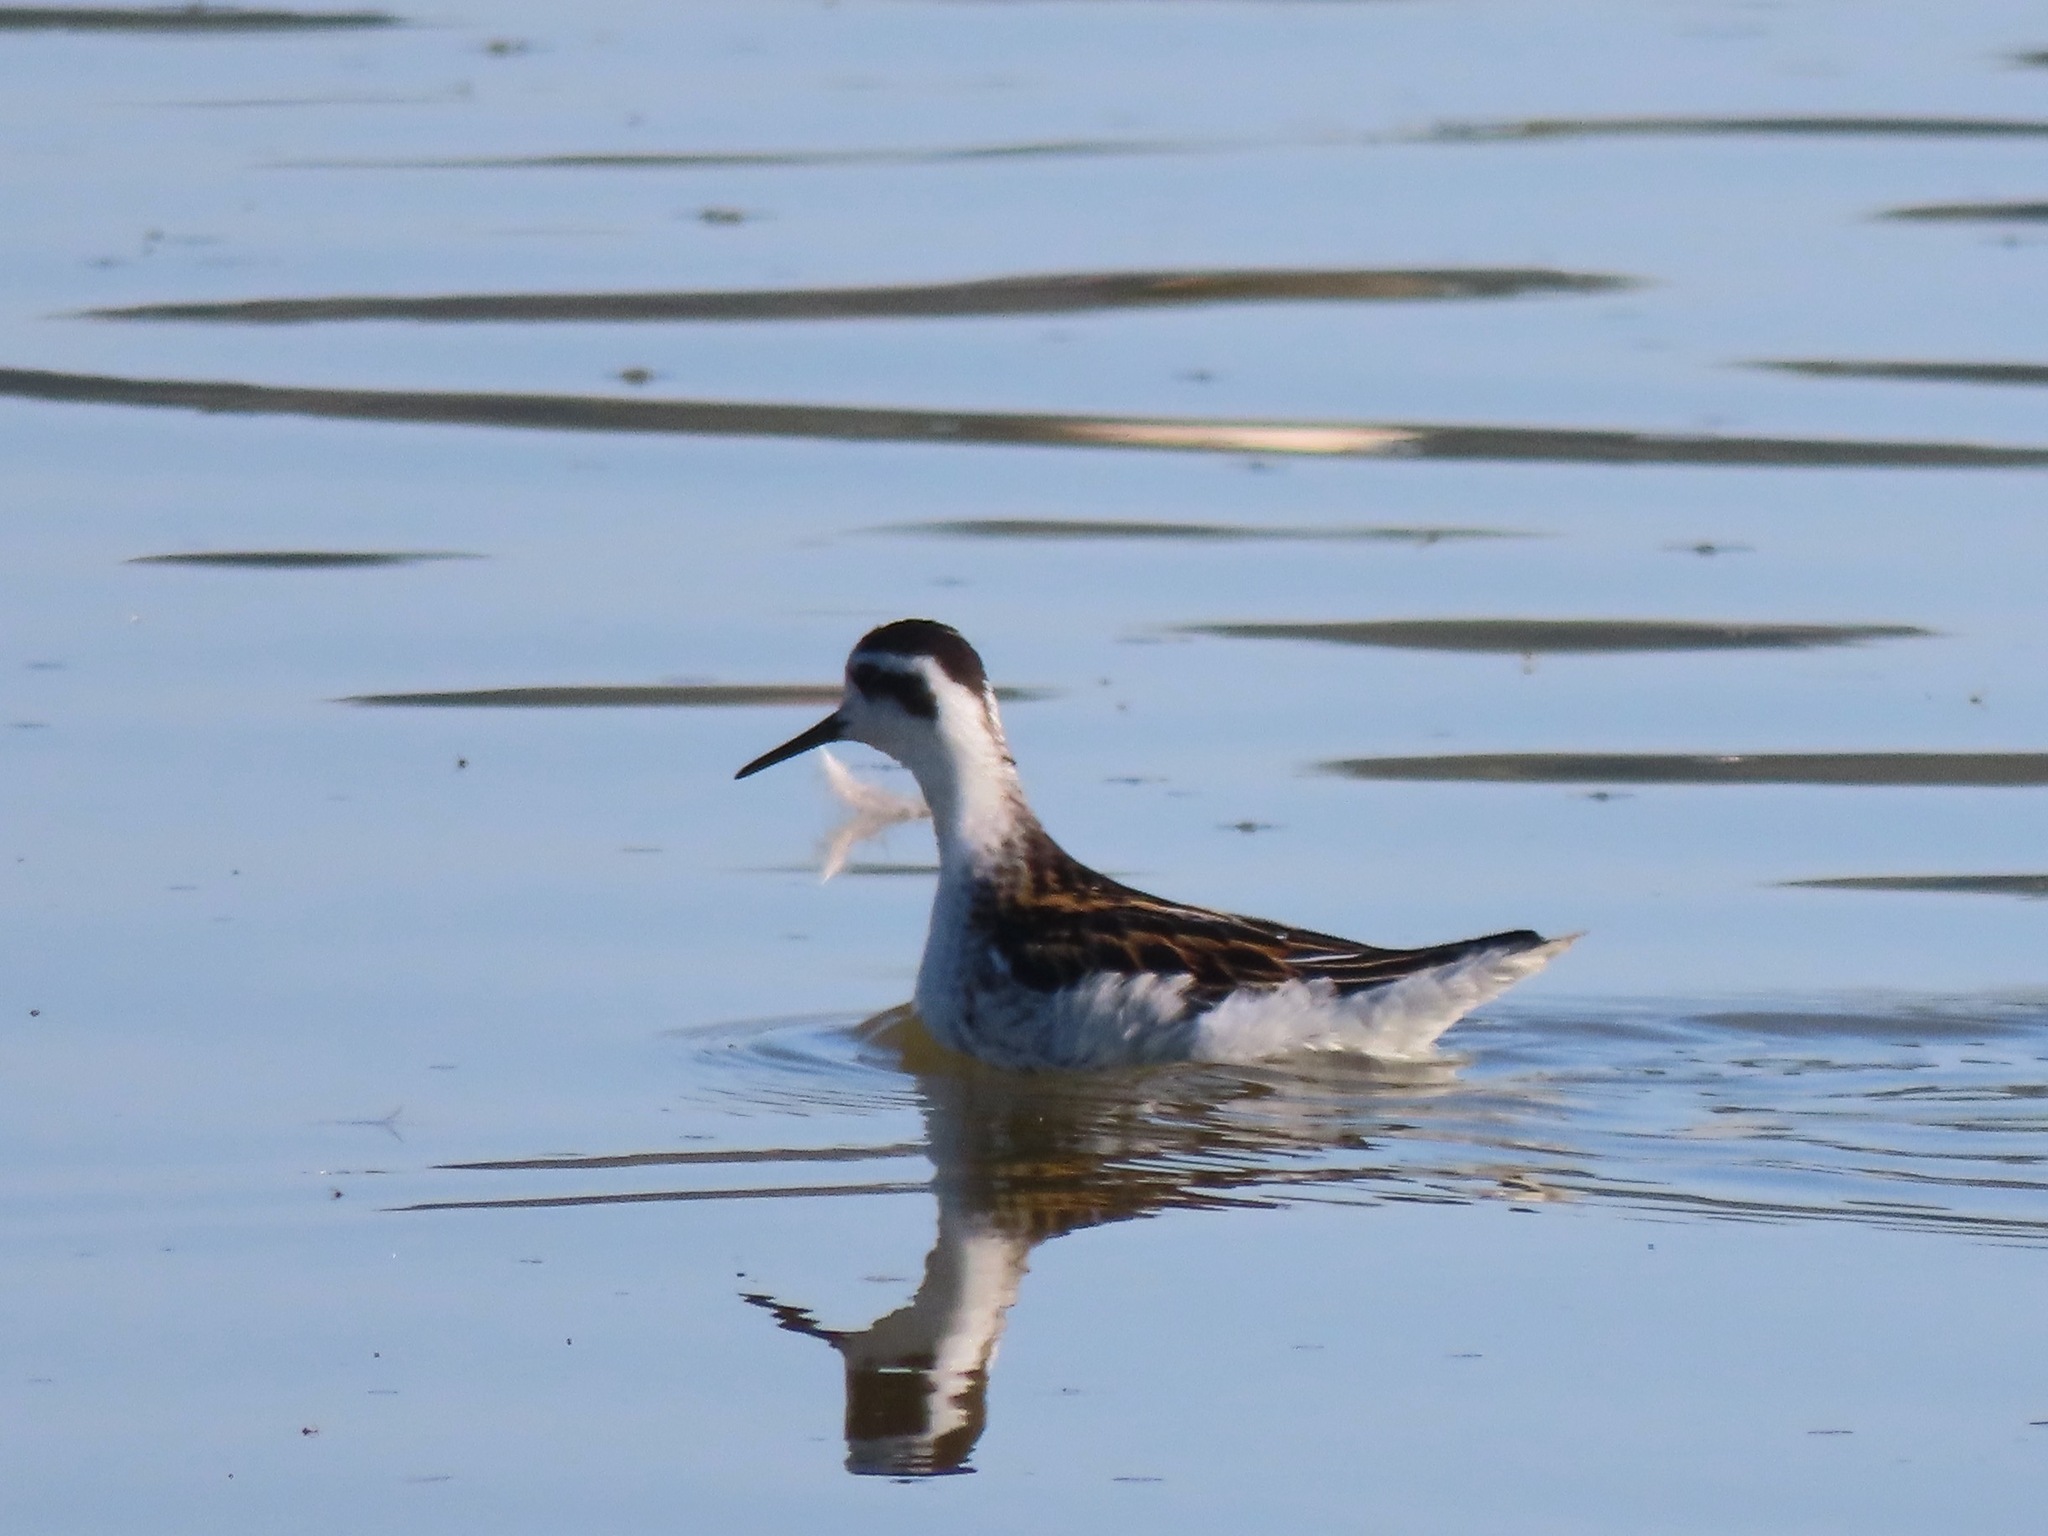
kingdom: Animalia
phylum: Chordata
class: Aves
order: Charadriiformes
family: Scolopacidae
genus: Phalaropus
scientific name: Phalaropus lobatus
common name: Red-necked phalarope
